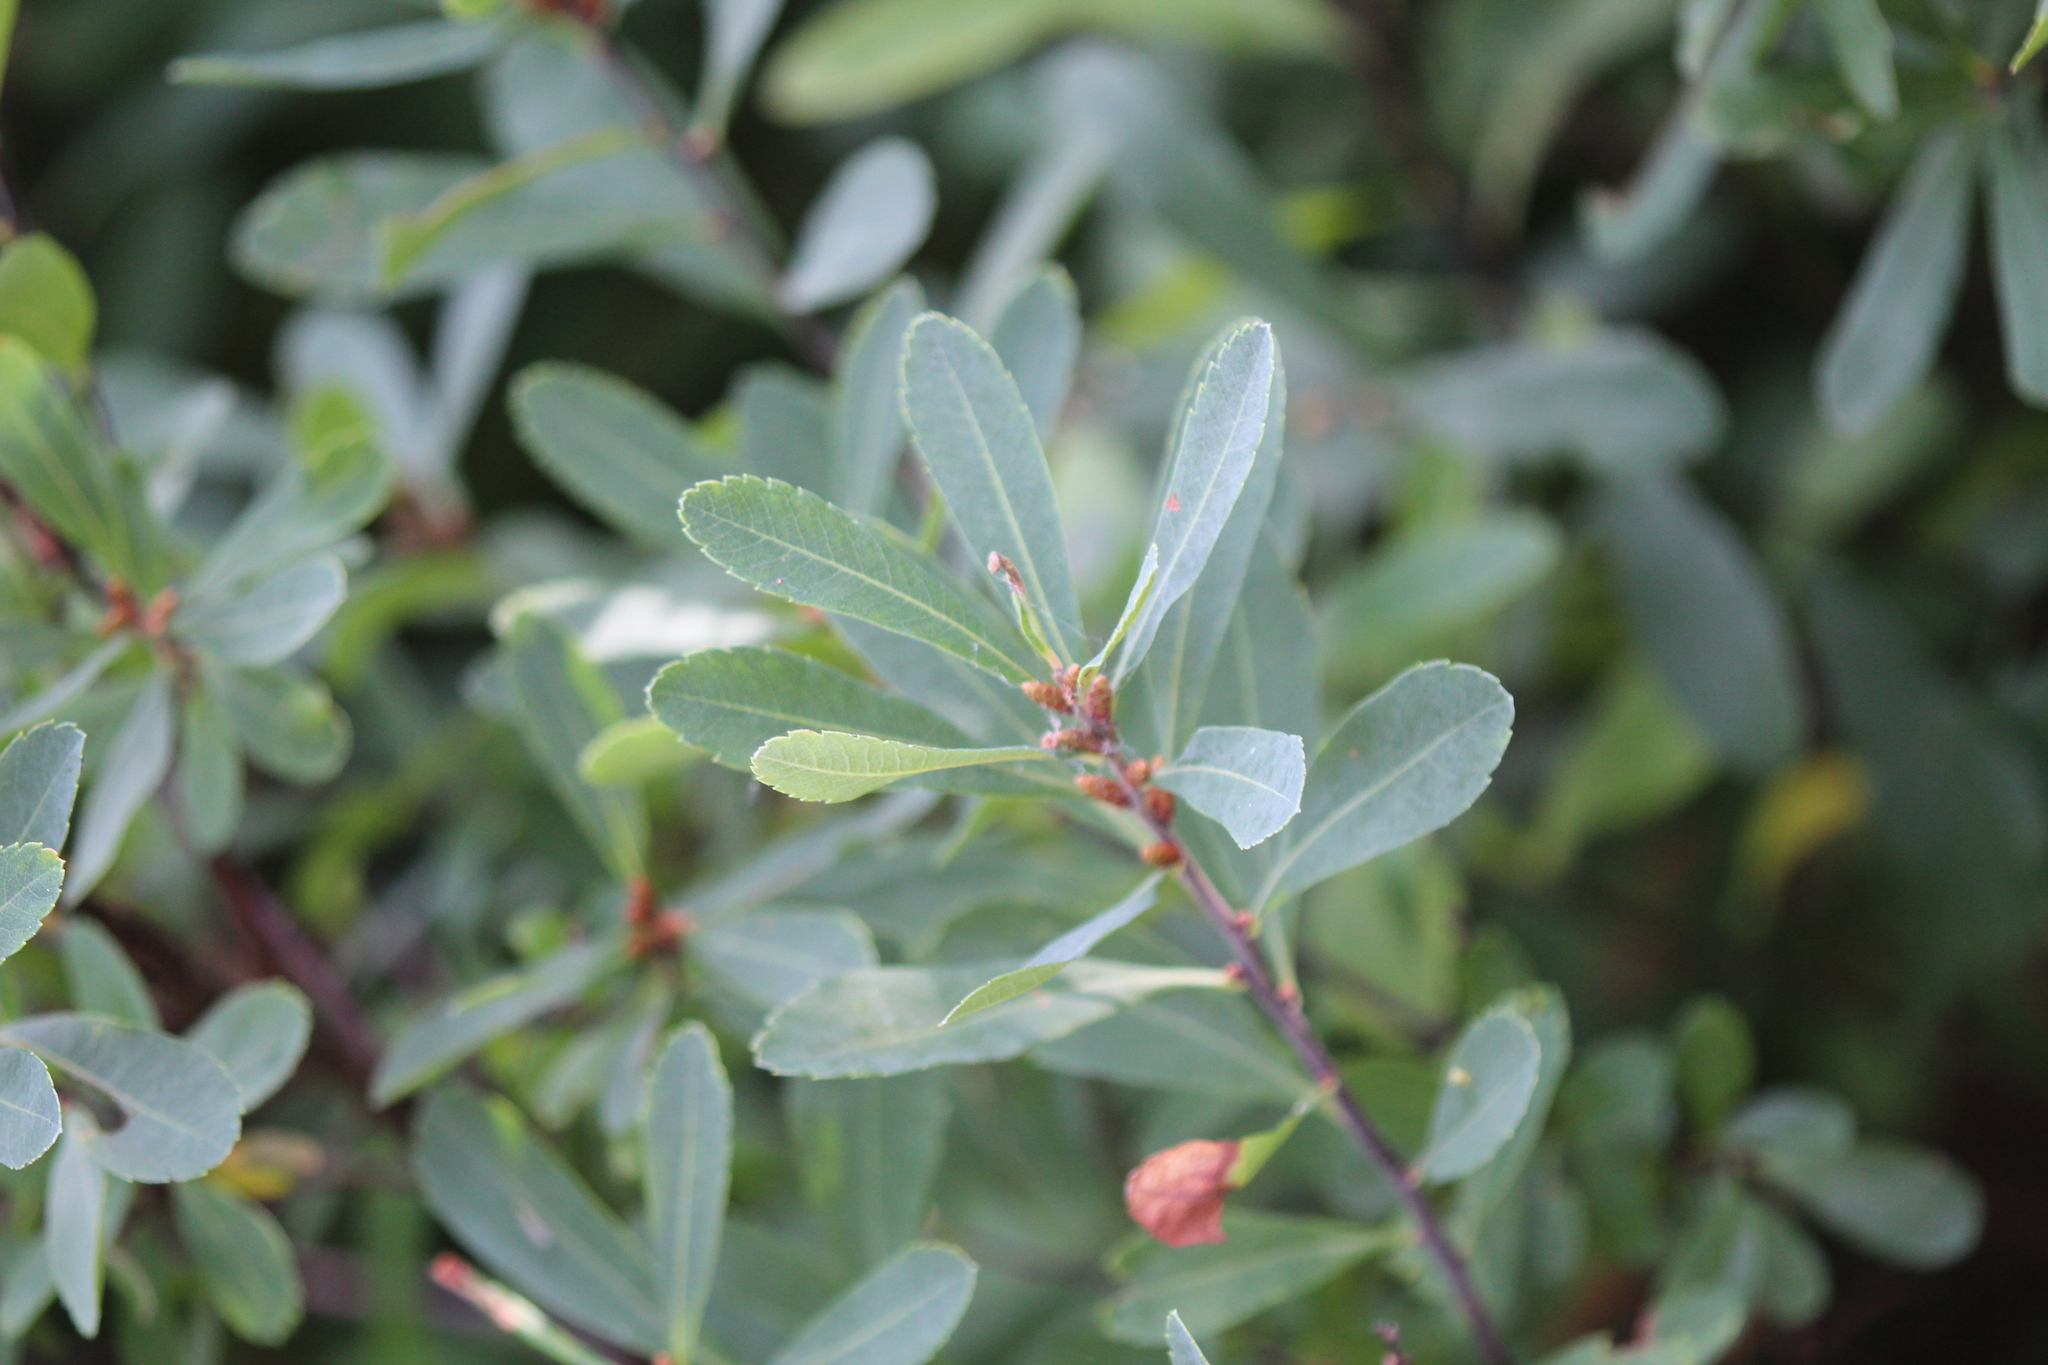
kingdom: Plantae
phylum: Tracheophyta
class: Magnoliopsida
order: Fagales
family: Myricaceae
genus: Myrica
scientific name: Myrica gale
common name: Sweet gale
